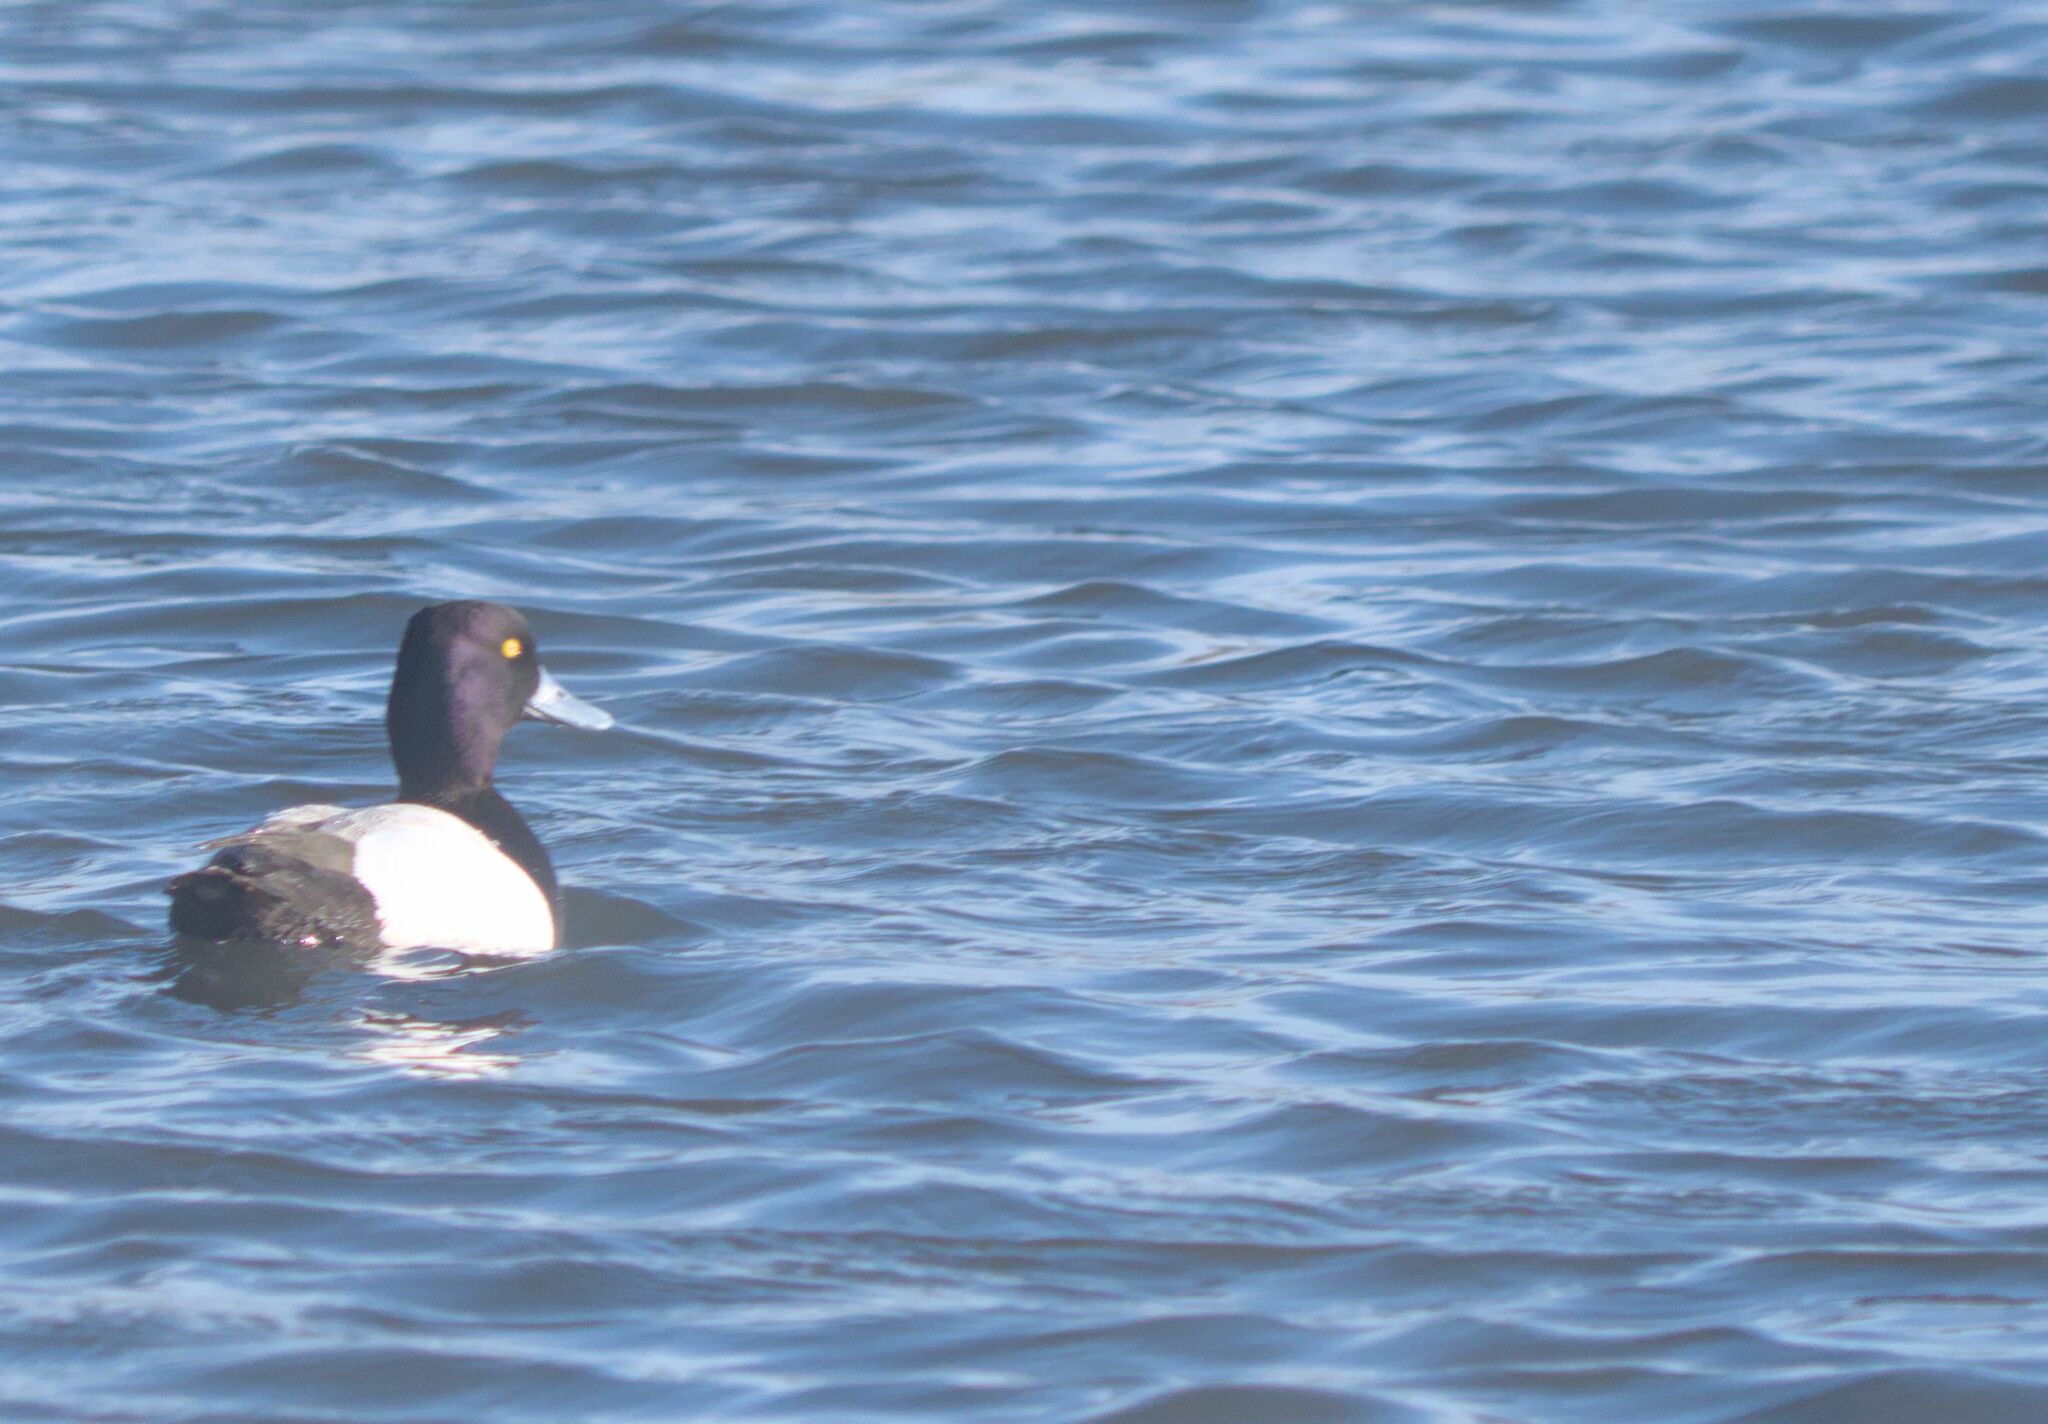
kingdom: Animalia
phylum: Chordata
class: Aves
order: Anseriformes
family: Anatidae
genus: Aythya
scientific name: Aythya affinis
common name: Lesser scaup
